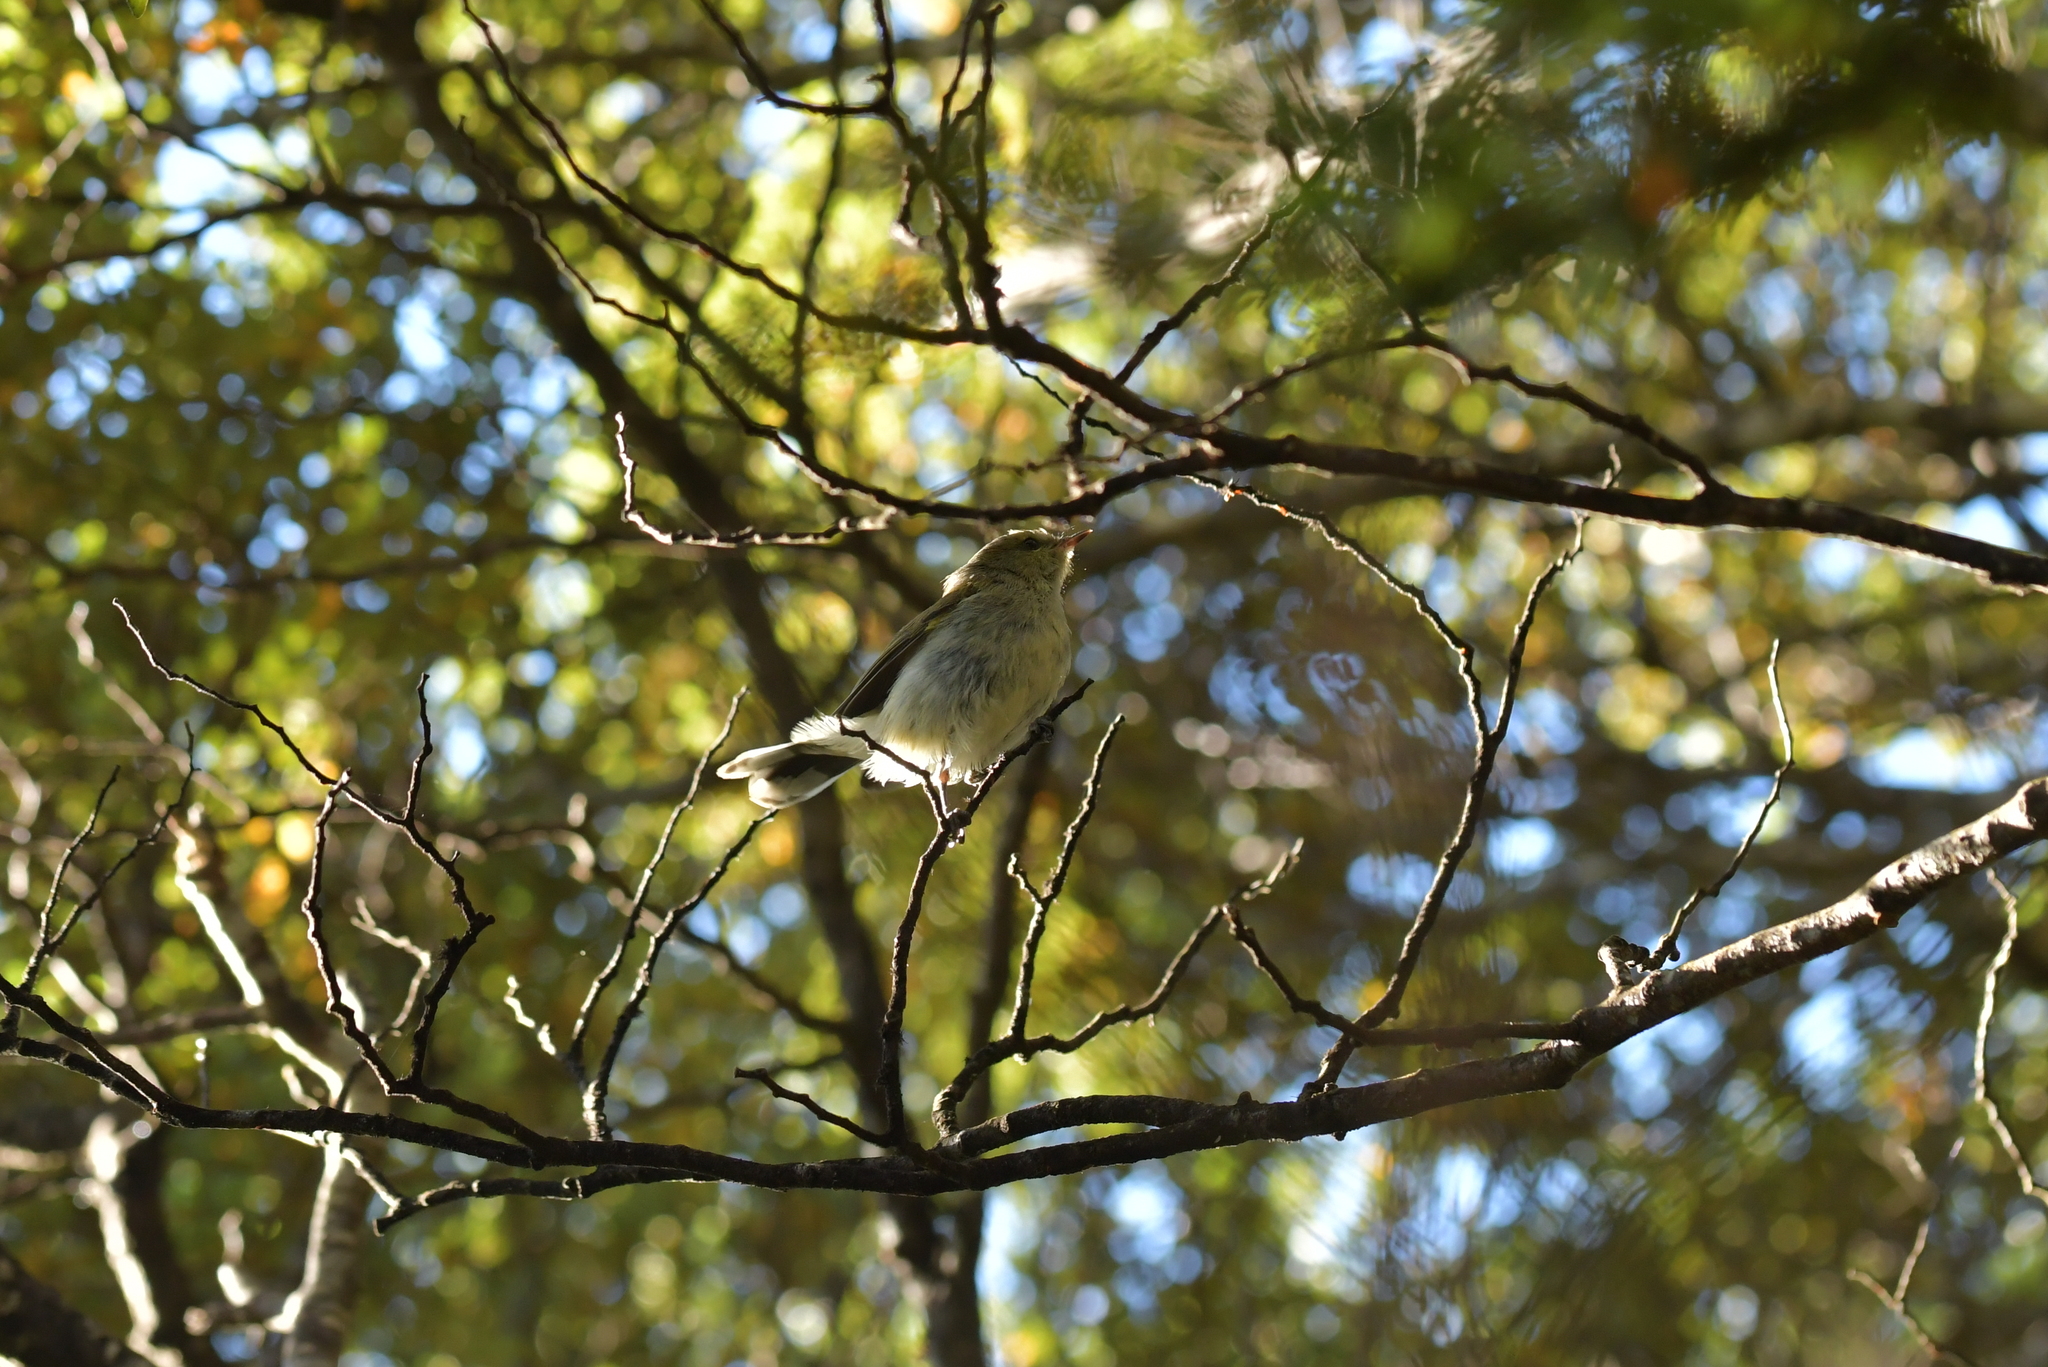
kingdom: Animalia
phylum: Chordata
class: Aves
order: Passeriformes
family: Acanthizidae
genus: Gerygone
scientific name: Gerygone igata
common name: Grey gerygone
